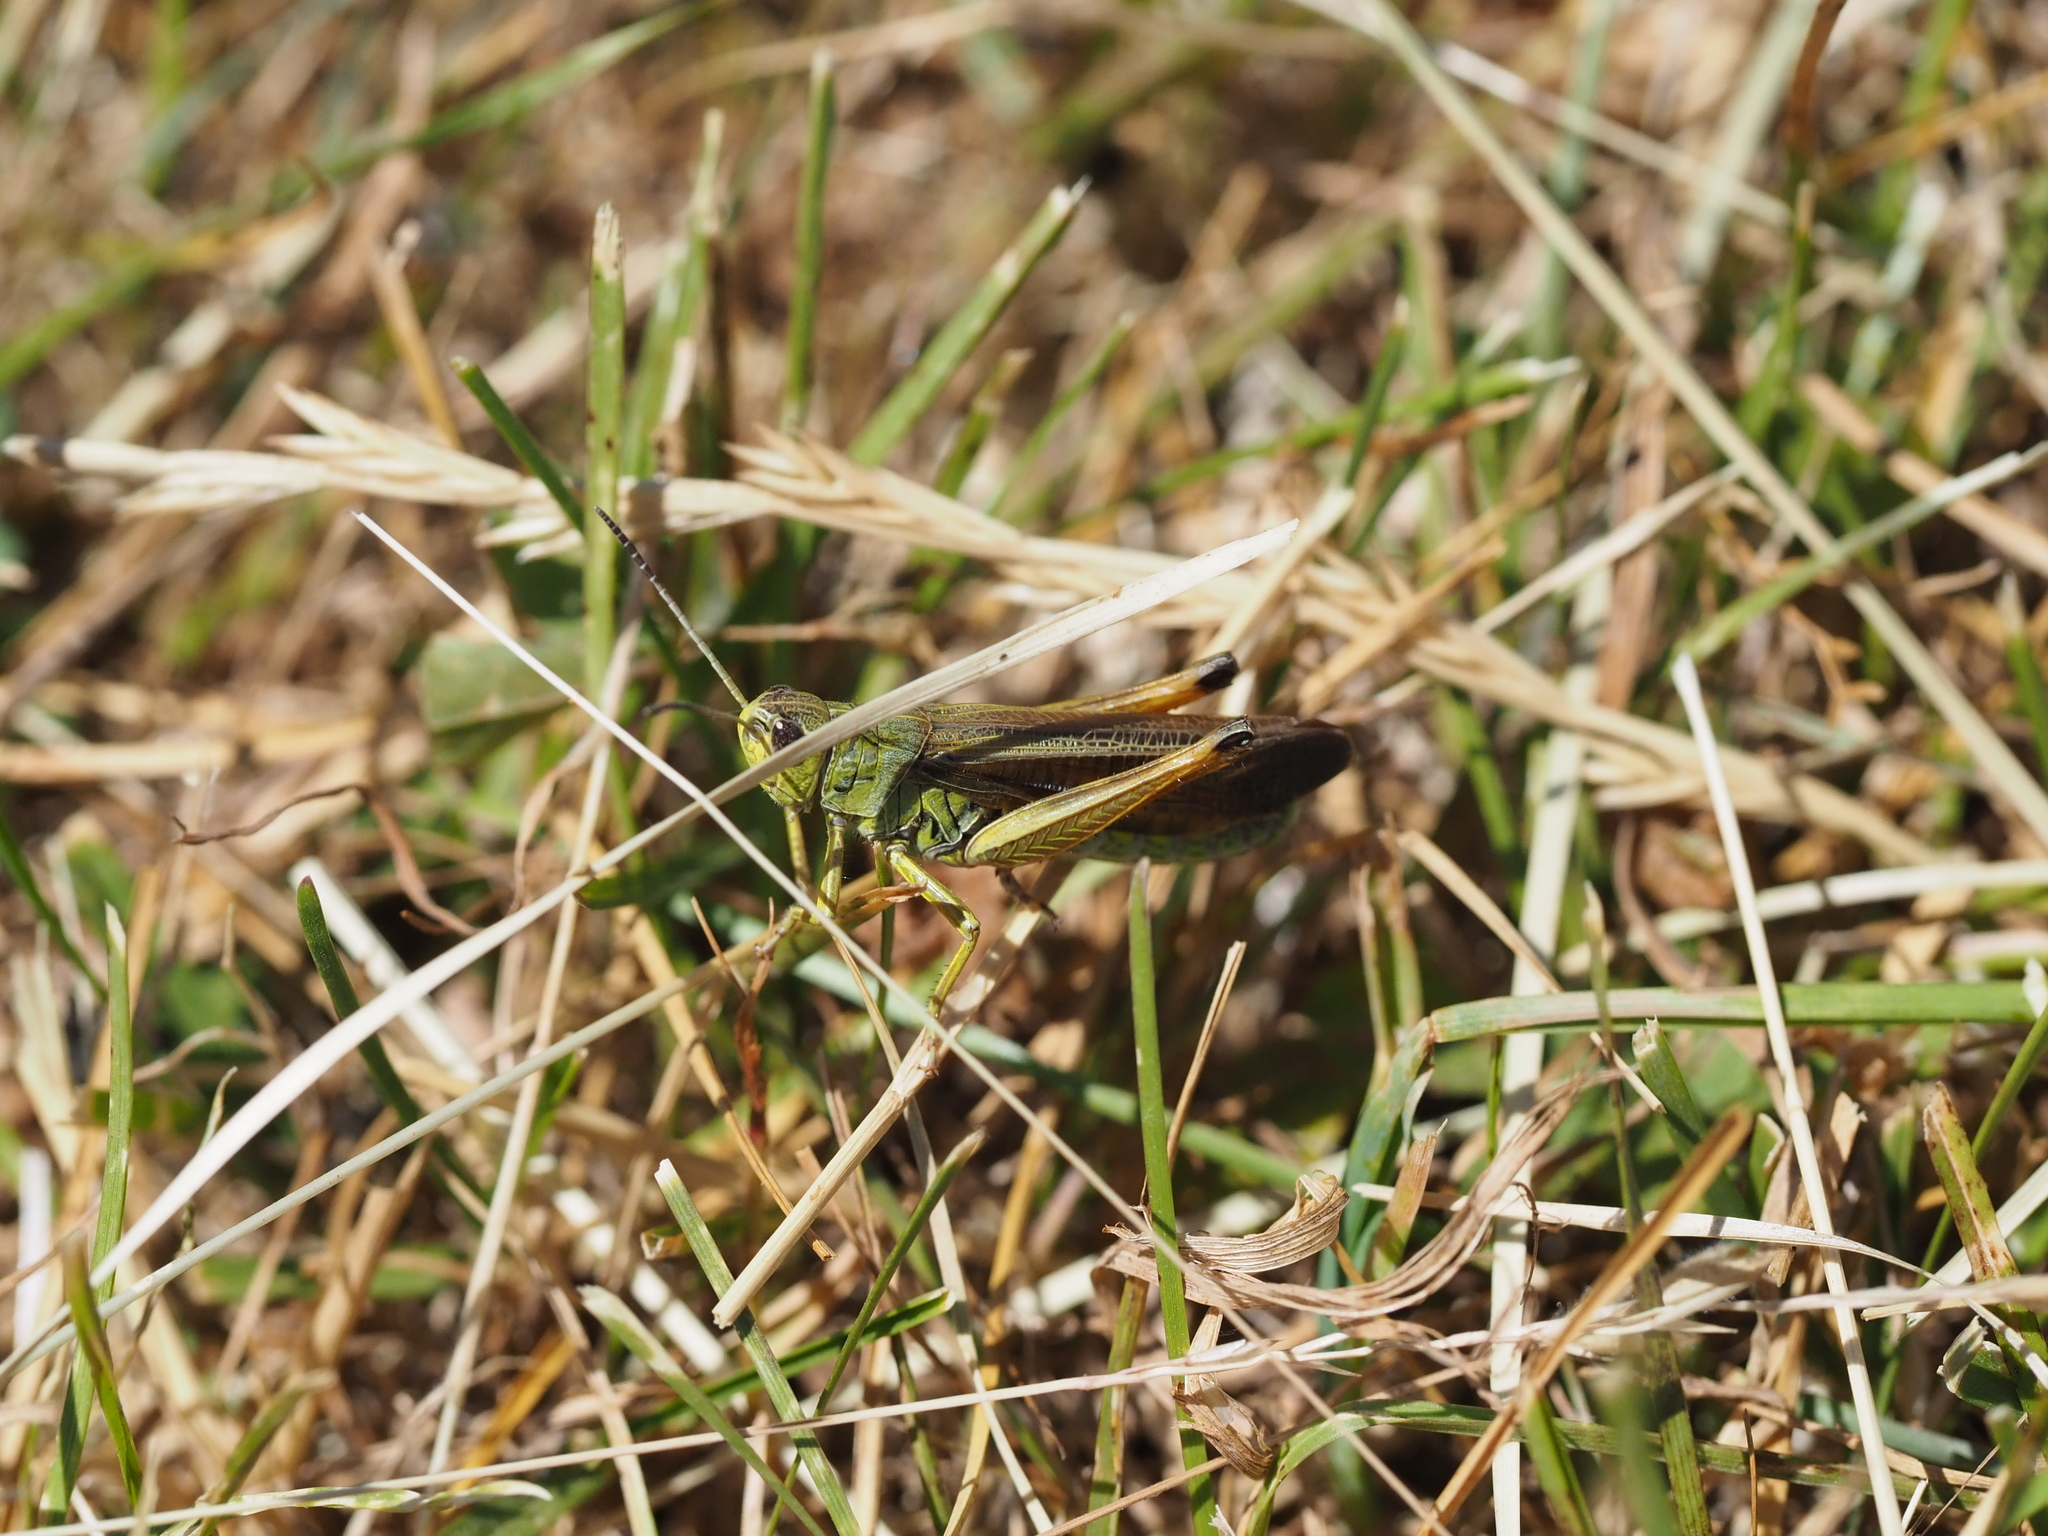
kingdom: Animalia
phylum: Arthropoda
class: Insecta
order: Orthoptera
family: Acrididae
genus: Stauroderus
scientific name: Stauroderus scalaris
